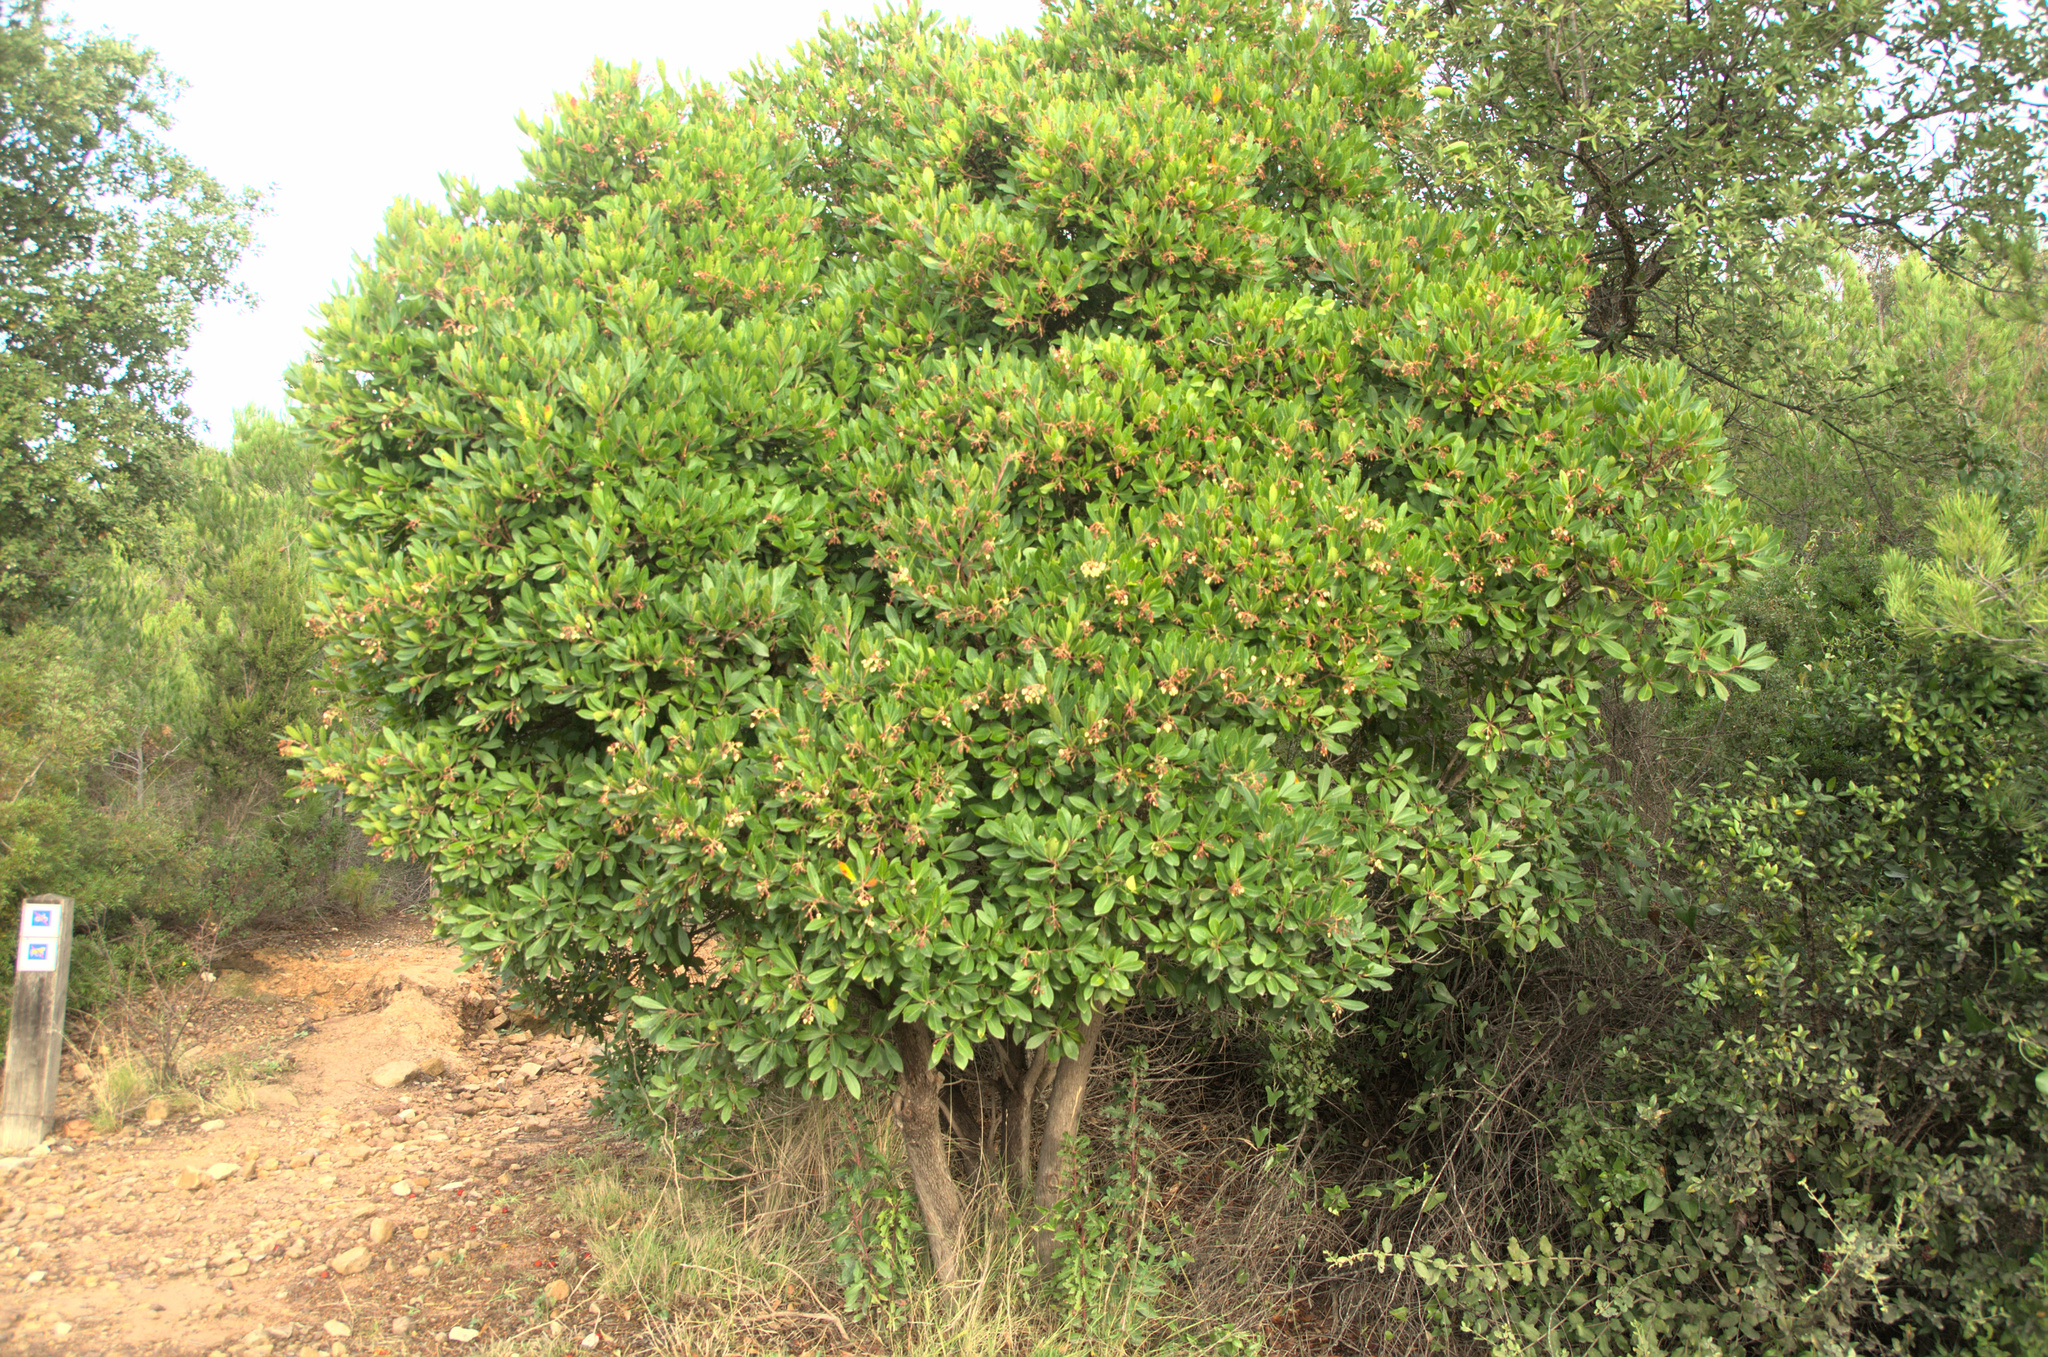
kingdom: Plantae
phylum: Tracheophyta
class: Magnoliopsida
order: Ericales
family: Ericaceae
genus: Arbutus
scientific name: Arbutus unedo
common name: Strawberry-tree
